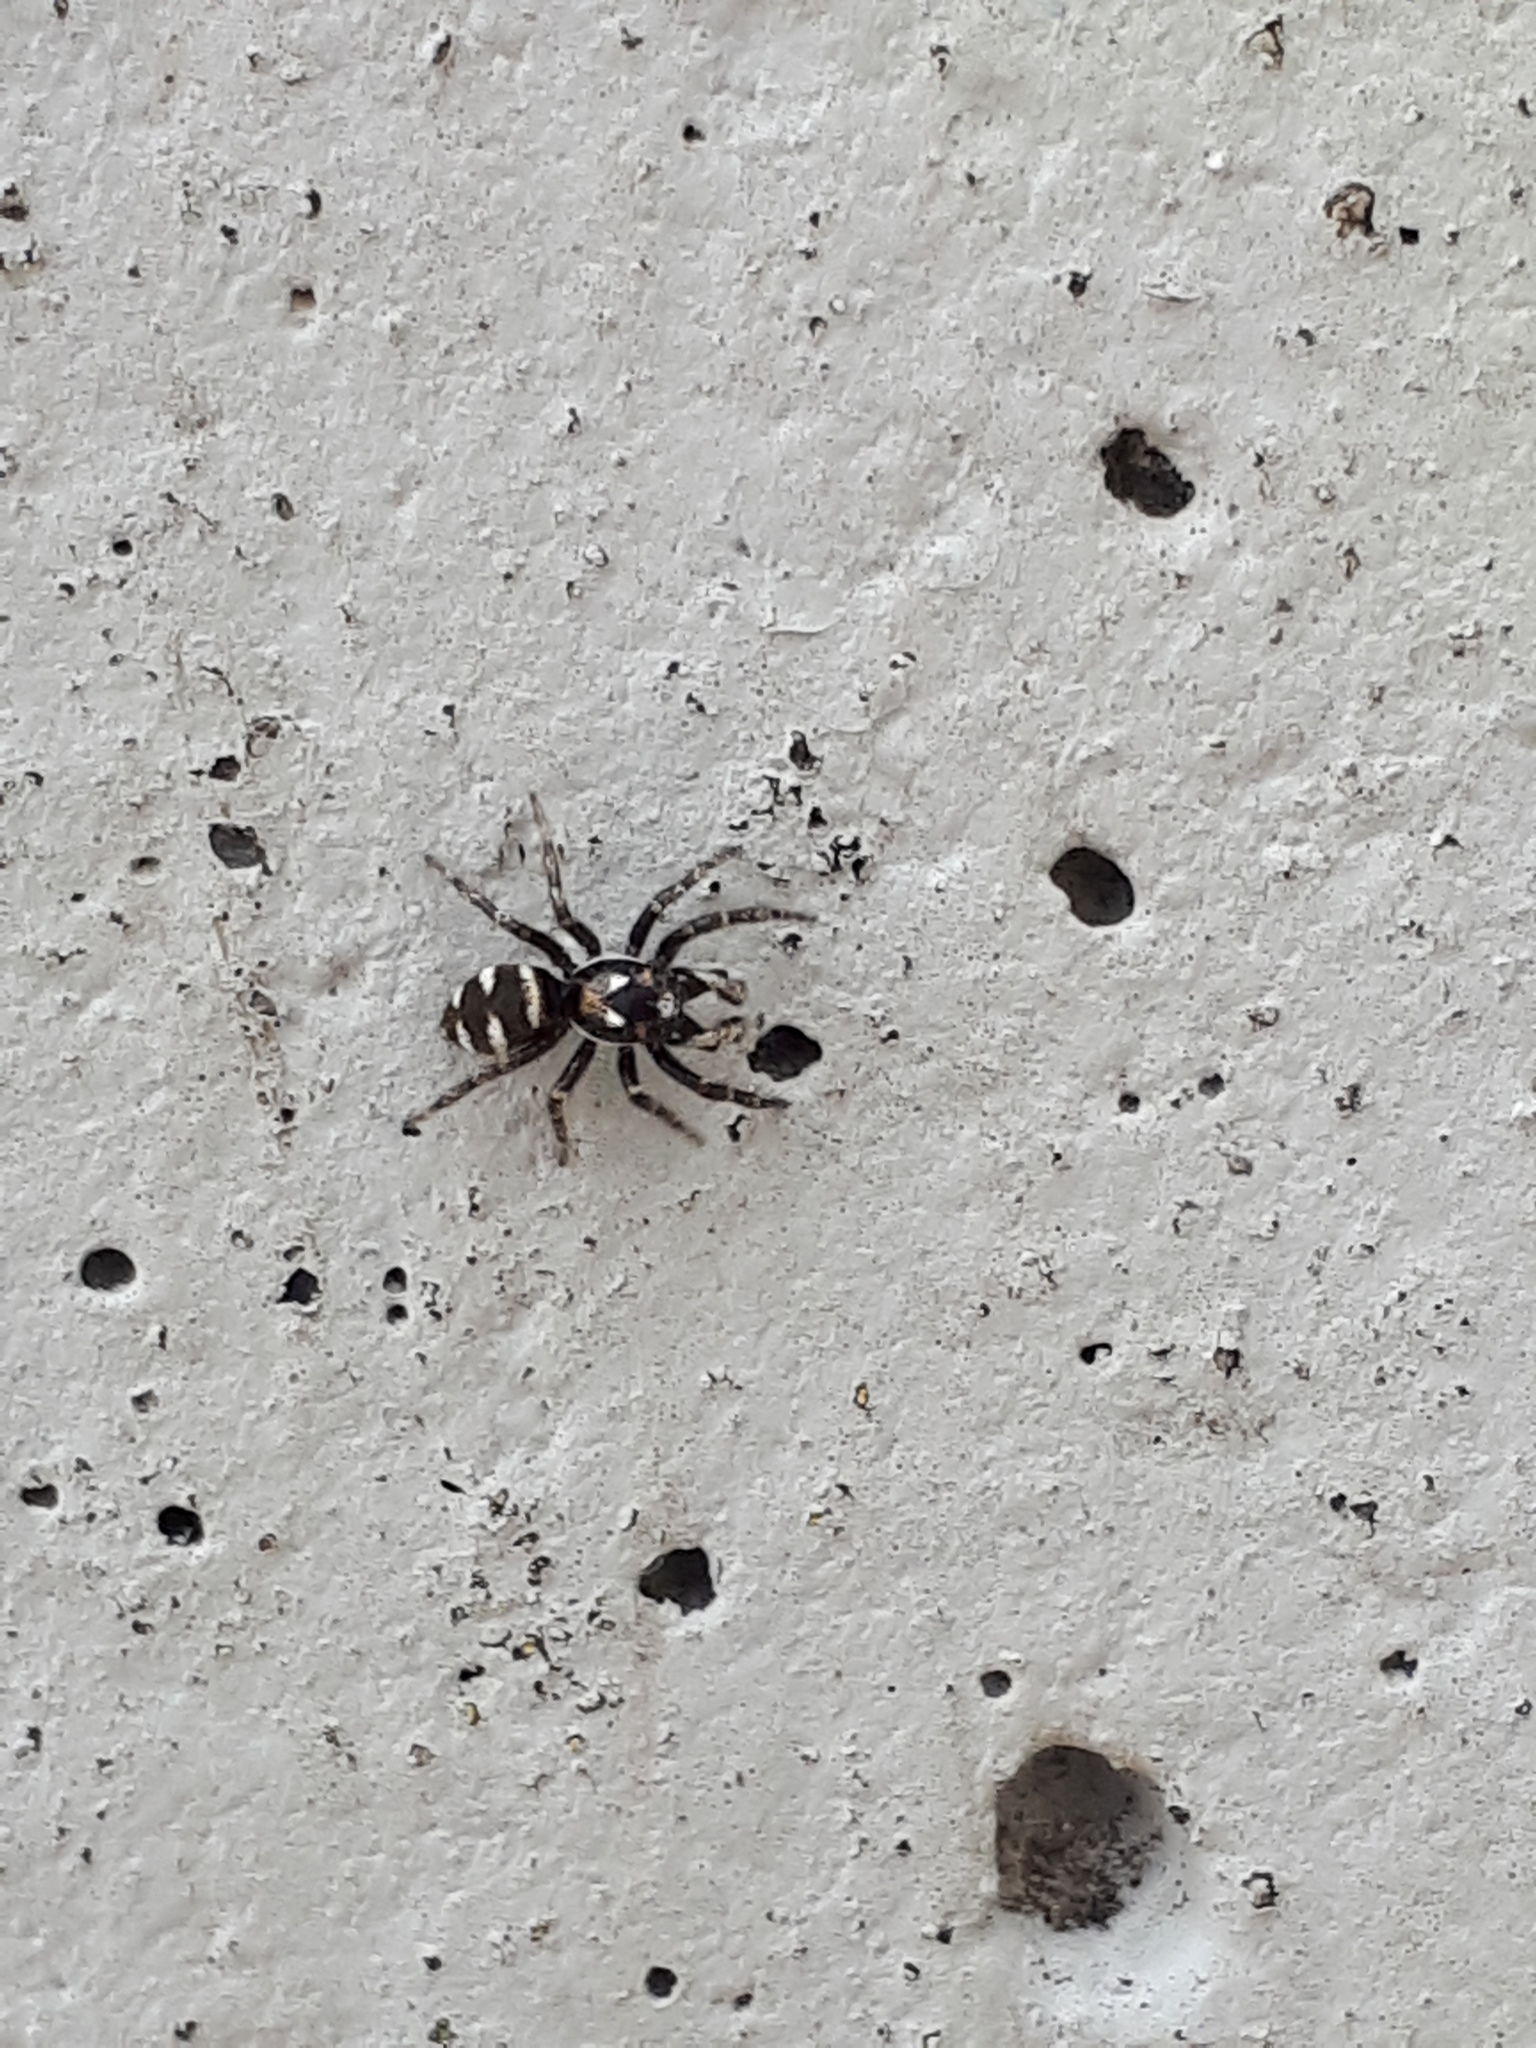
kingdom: Animalia
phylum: Arthropoda
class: Arachnida
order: Araneae
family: Salticidae
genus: Salticus
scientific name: Salticus scenicus
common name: Zebra jumper
